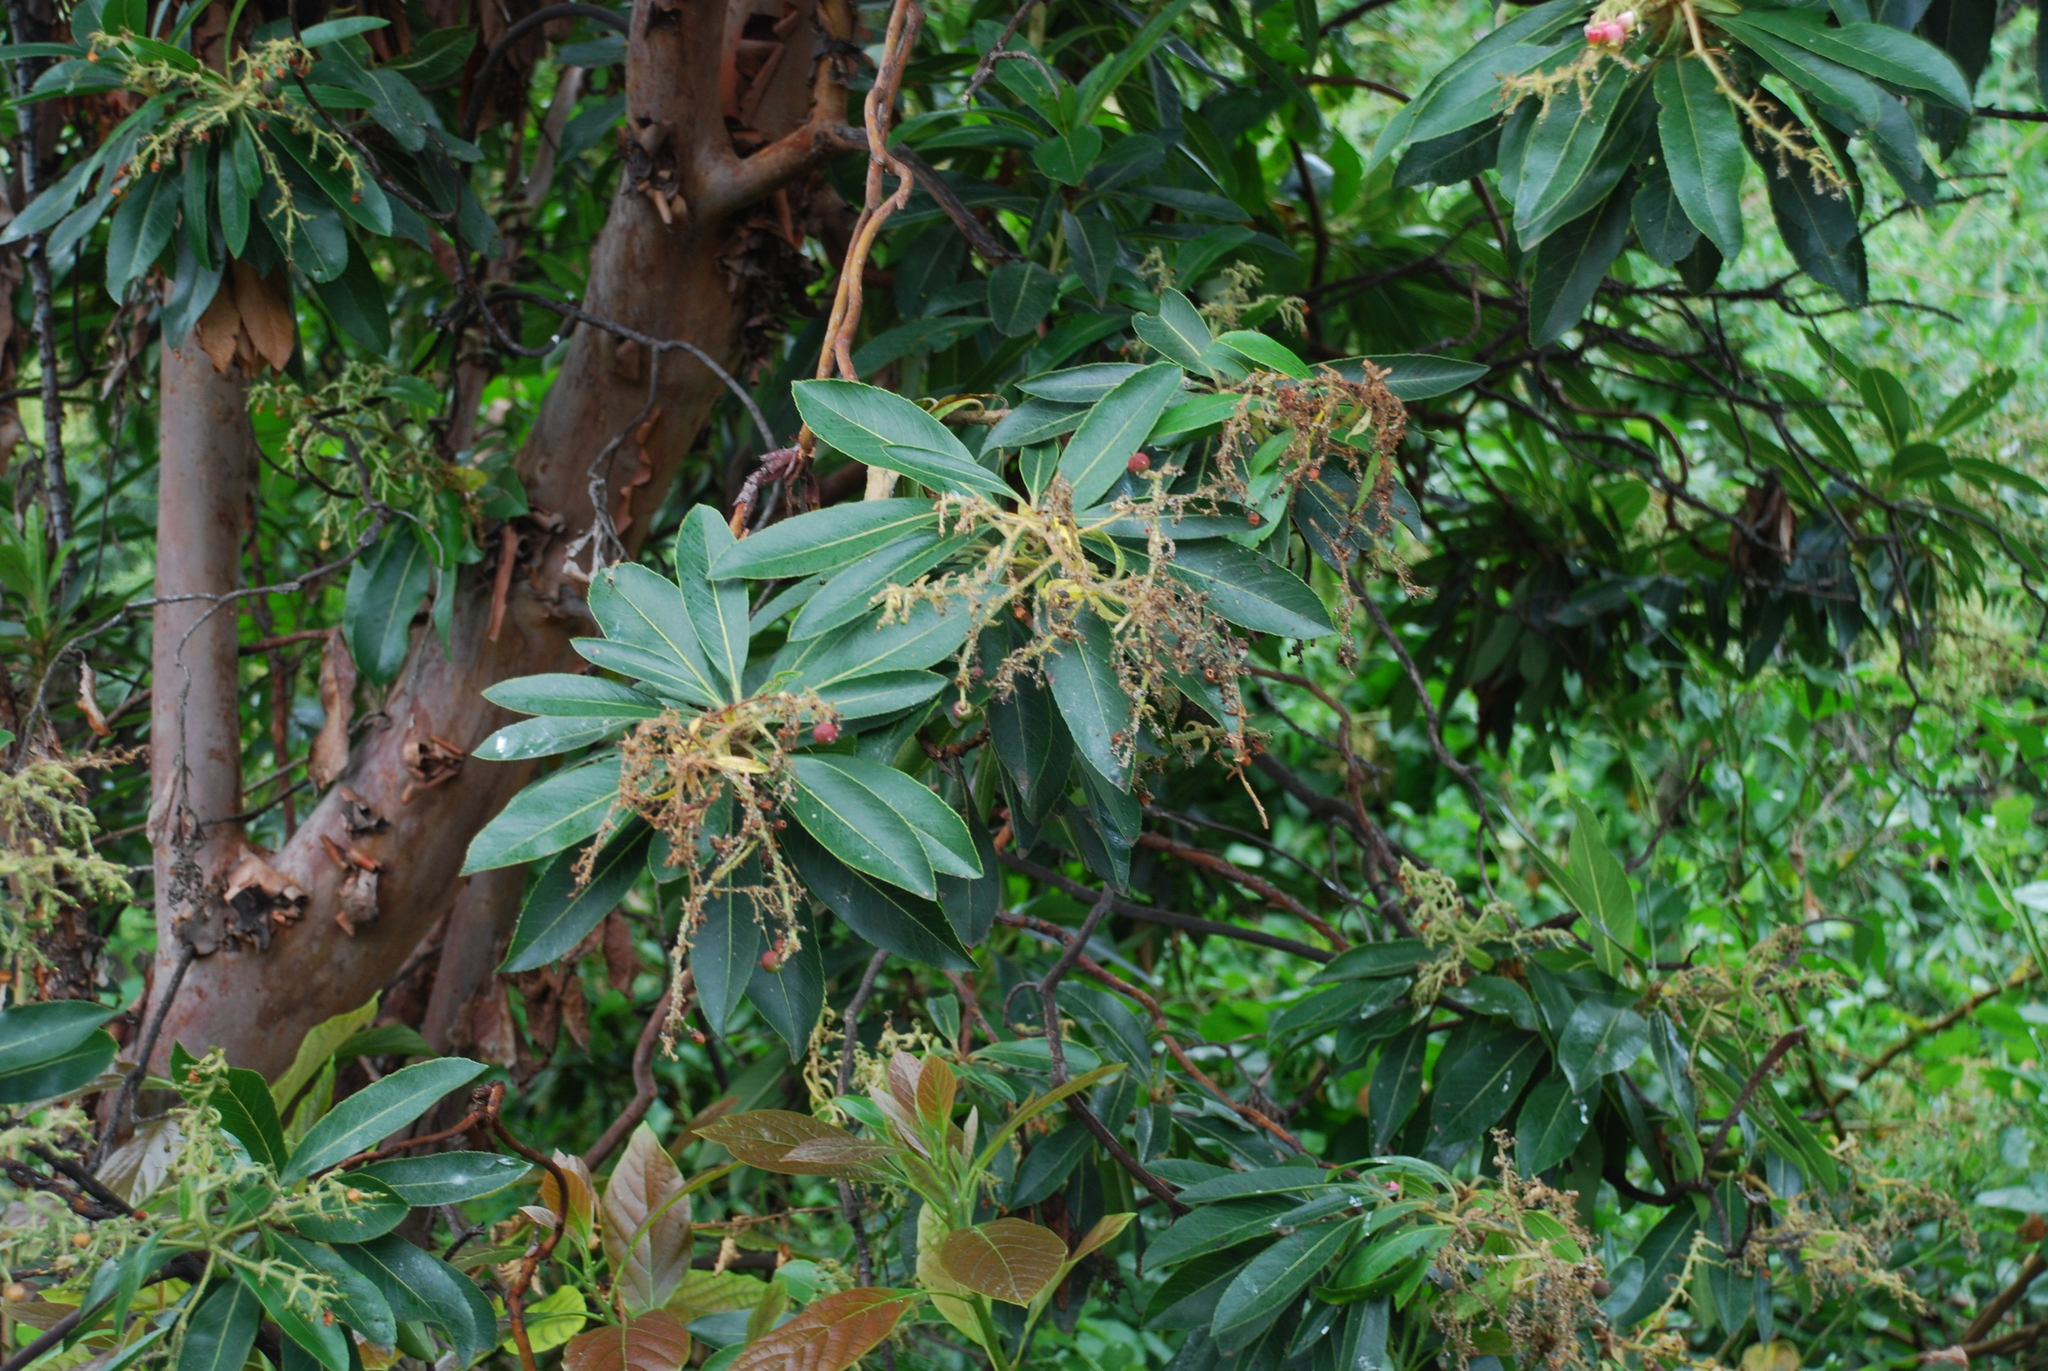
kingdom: Plantae
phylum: Tracheophyta
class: Magnoliopsida
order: Ericales
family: Ericaceae
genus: Arbutus
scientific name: Arbutus canariensis
